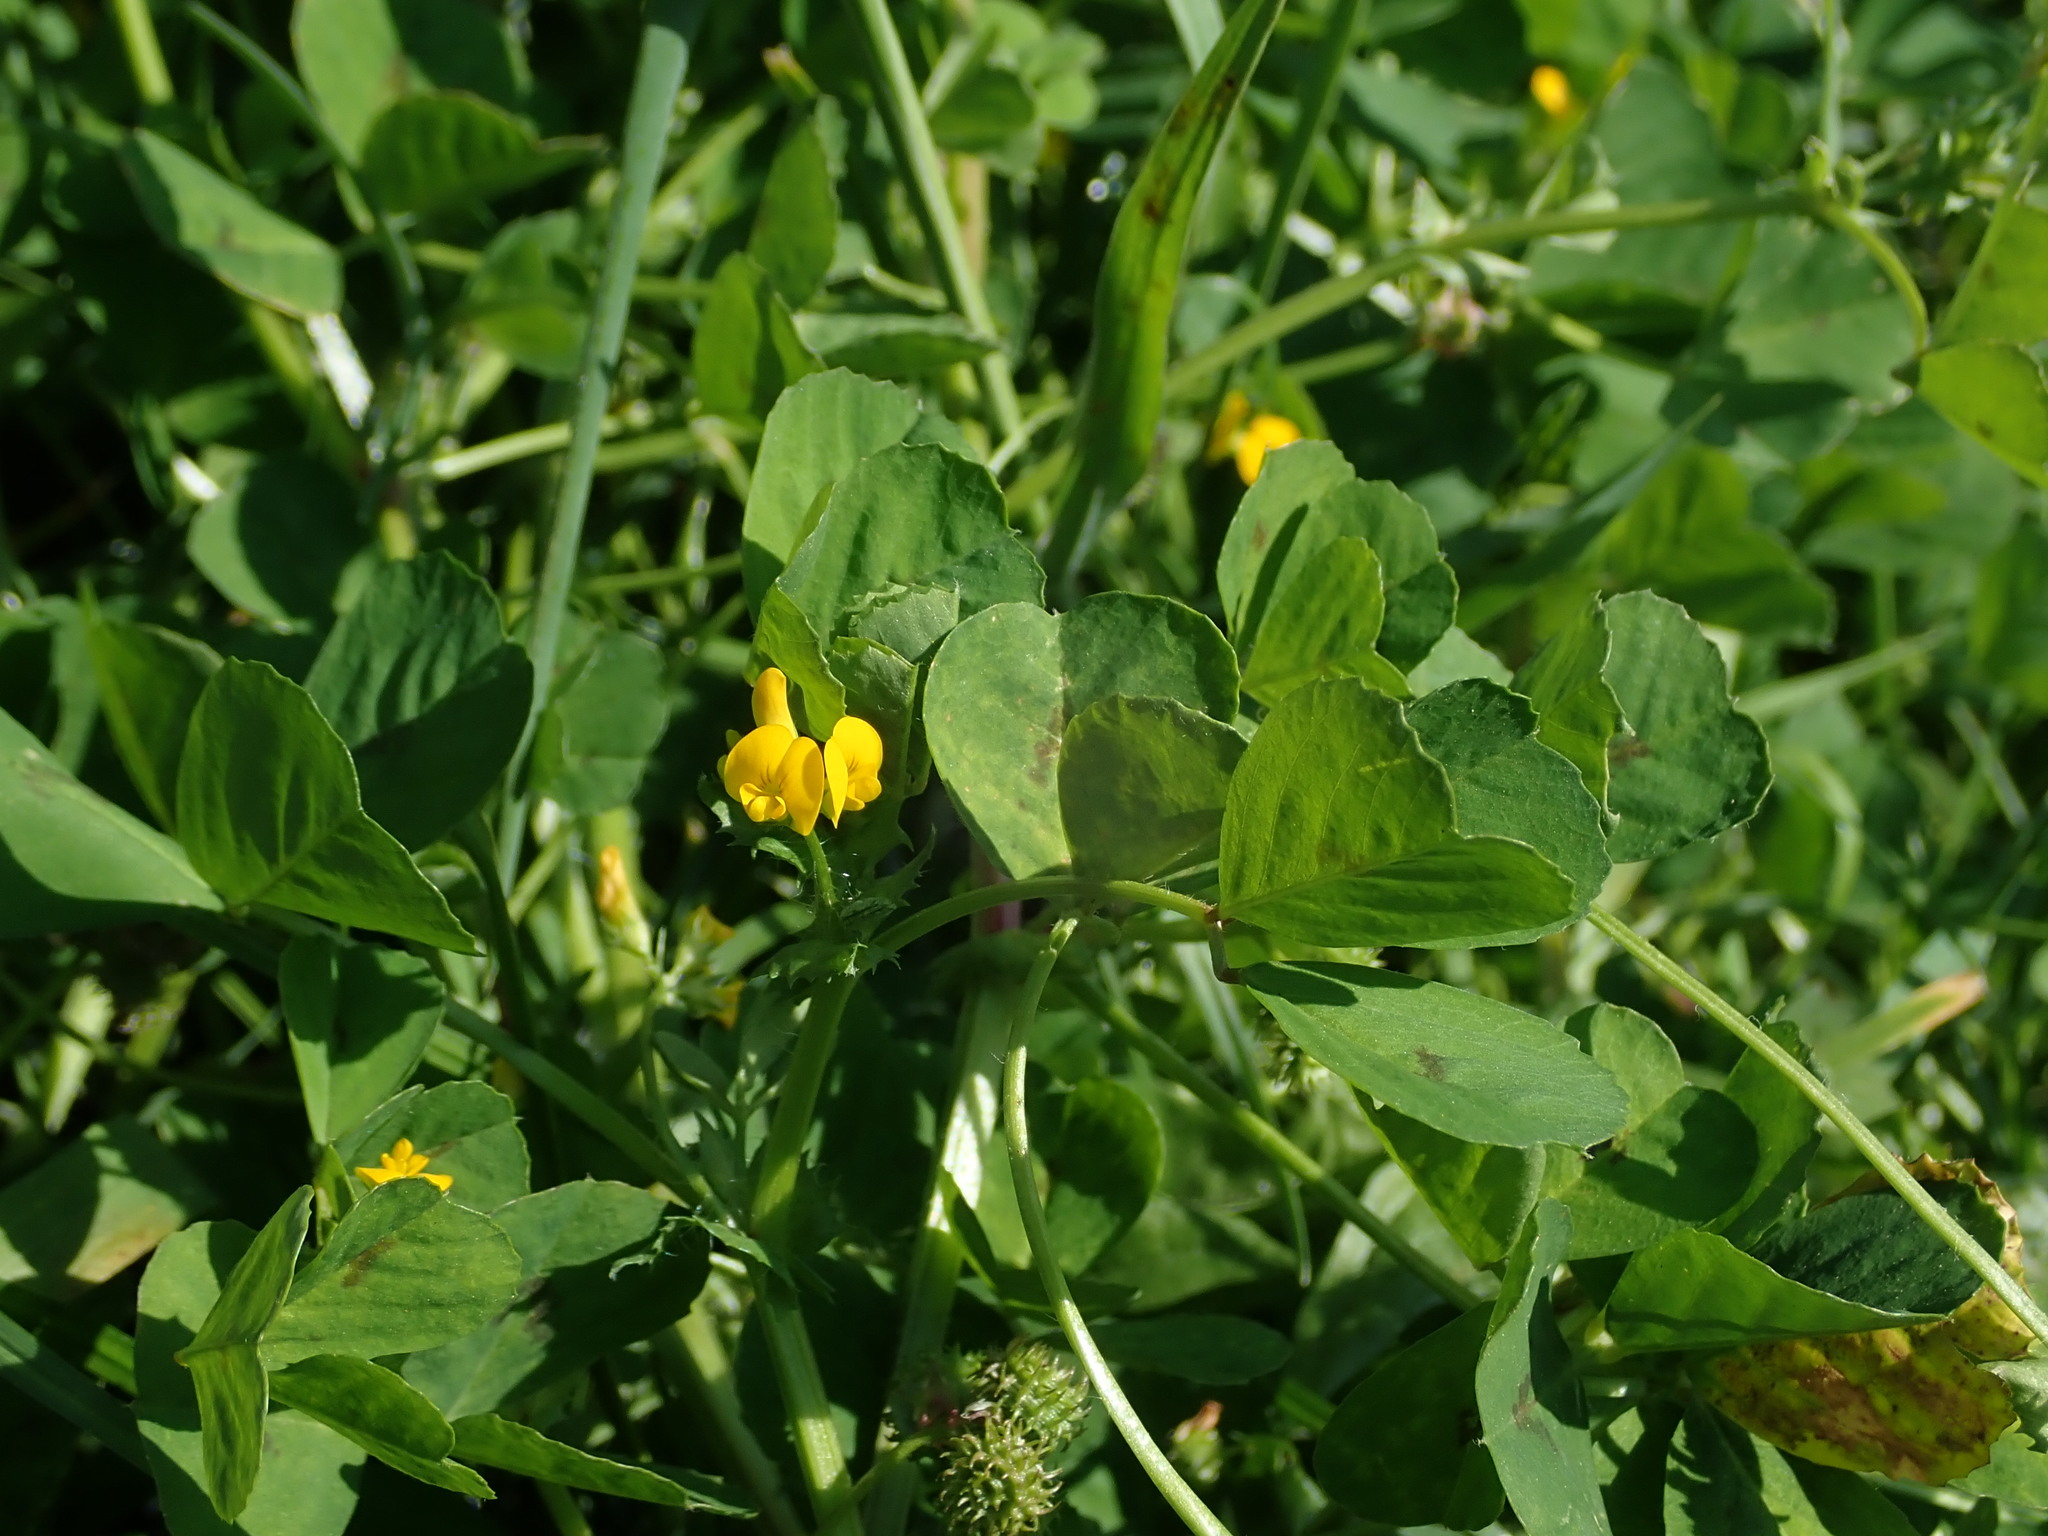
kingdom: Plantae
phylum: Tracheophyta
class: Magnoliopsida
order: Fabales
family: Fabaceae
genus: Medicago
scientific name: Medicago arabica
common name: Spotted medick
